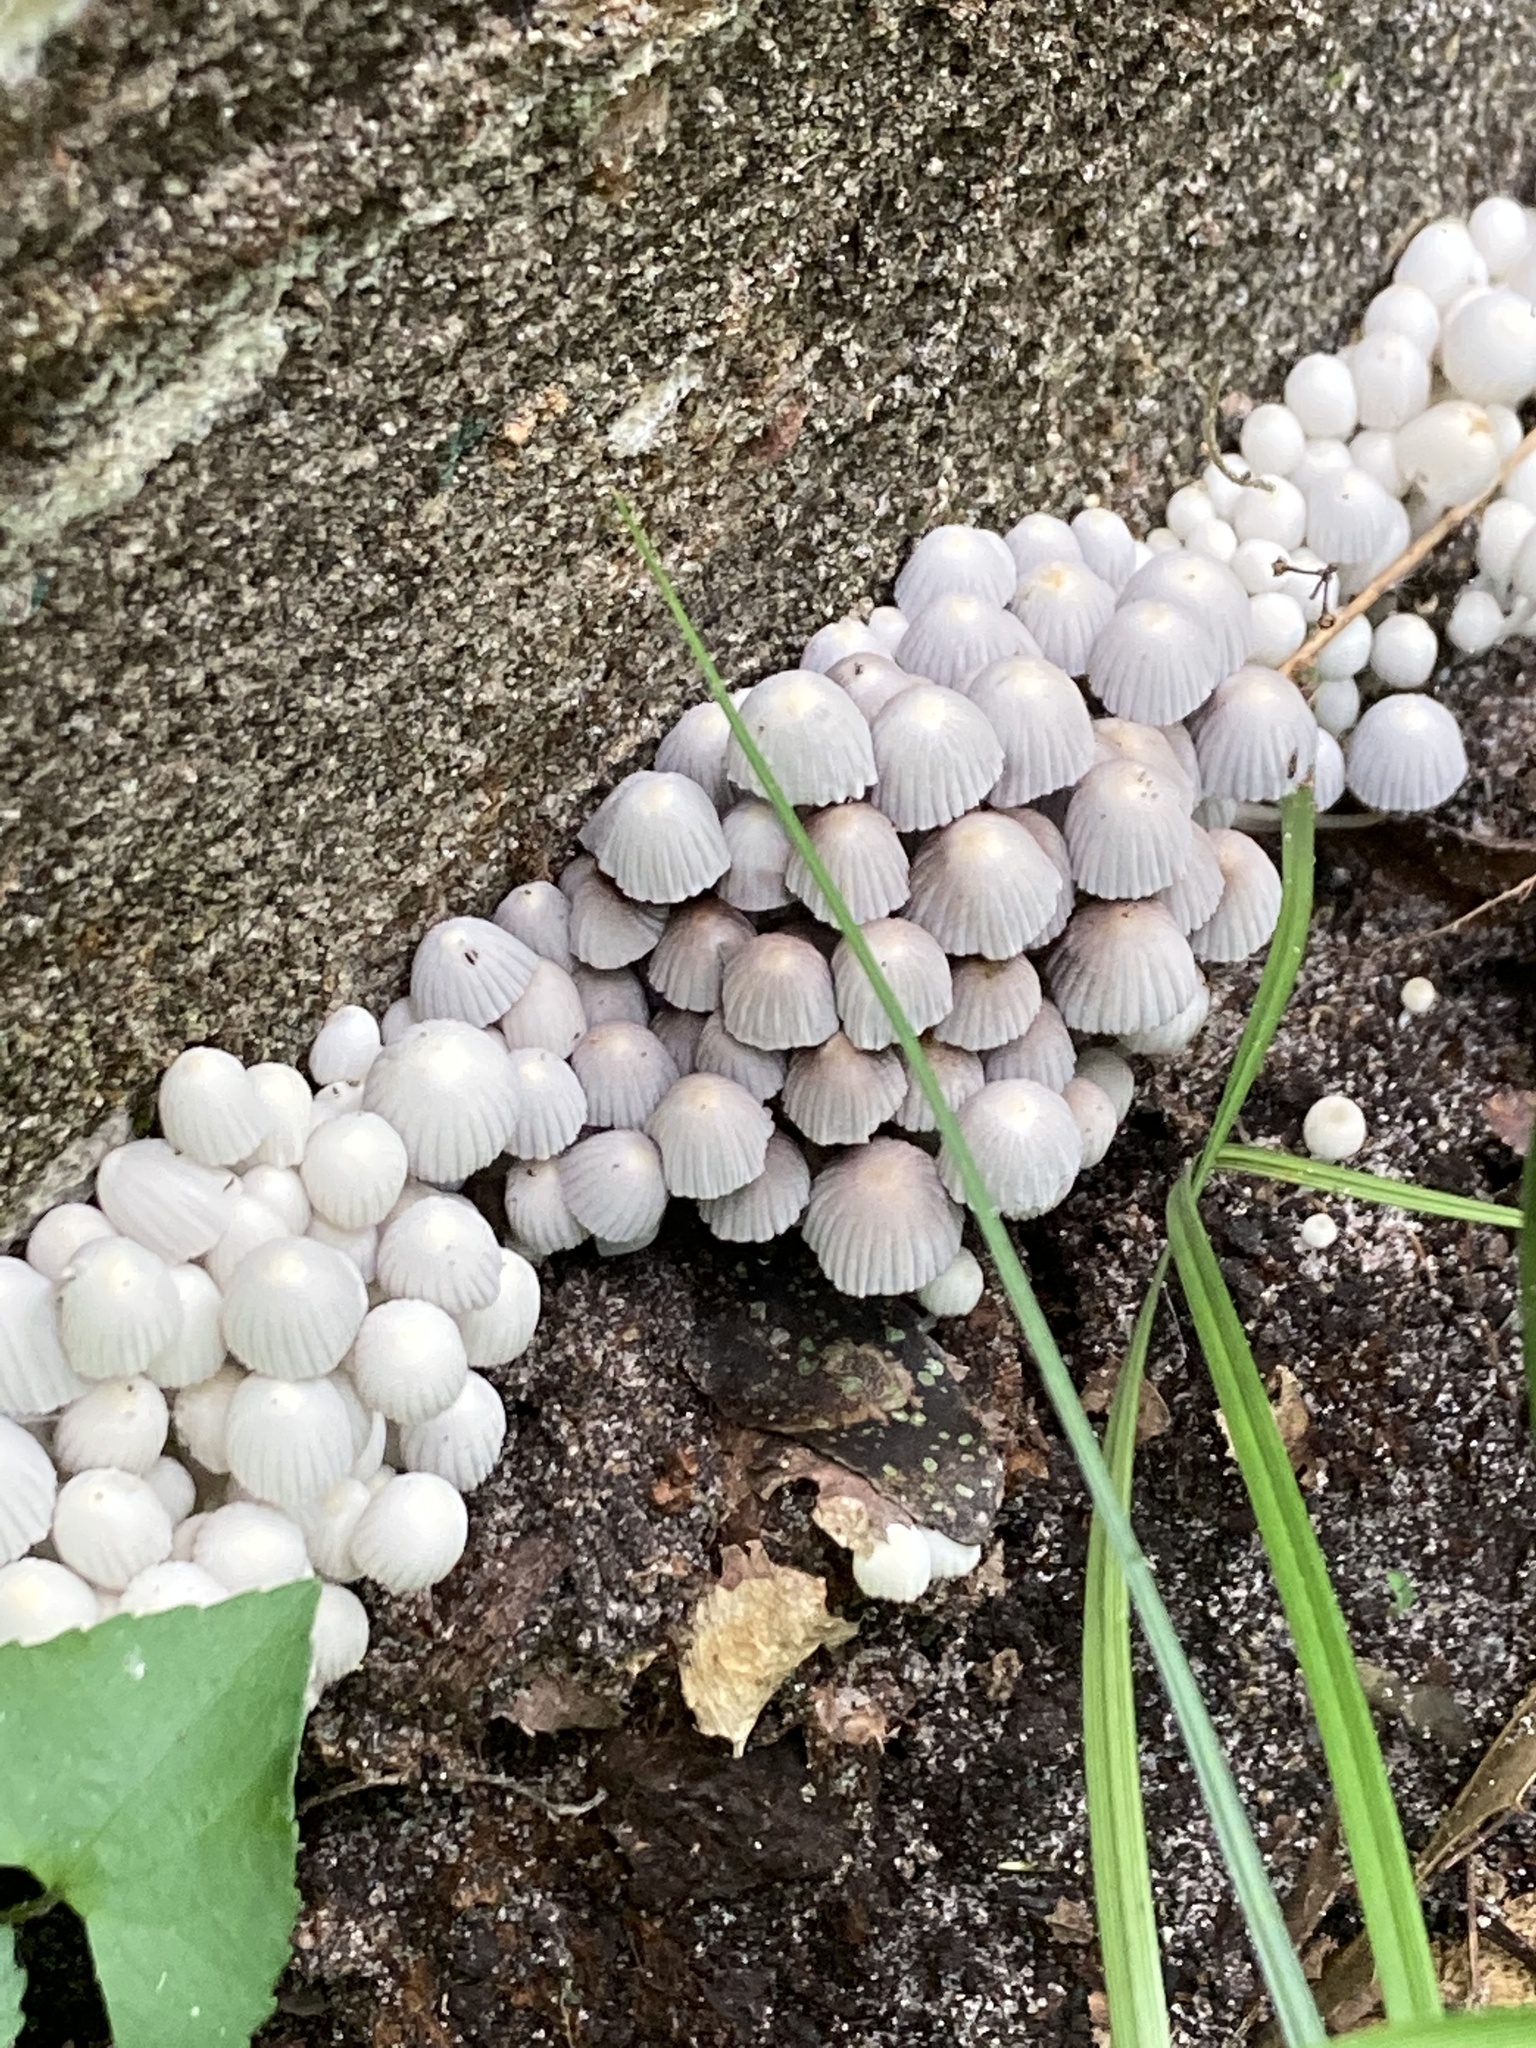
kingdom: Fungi
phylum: Basidiomycota
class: Agaricomycetes
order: Agaricales
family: Psathyrellaceae
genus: Coprinellus
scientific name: Coprinellus disseminatus
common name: Fairies' bonnets
